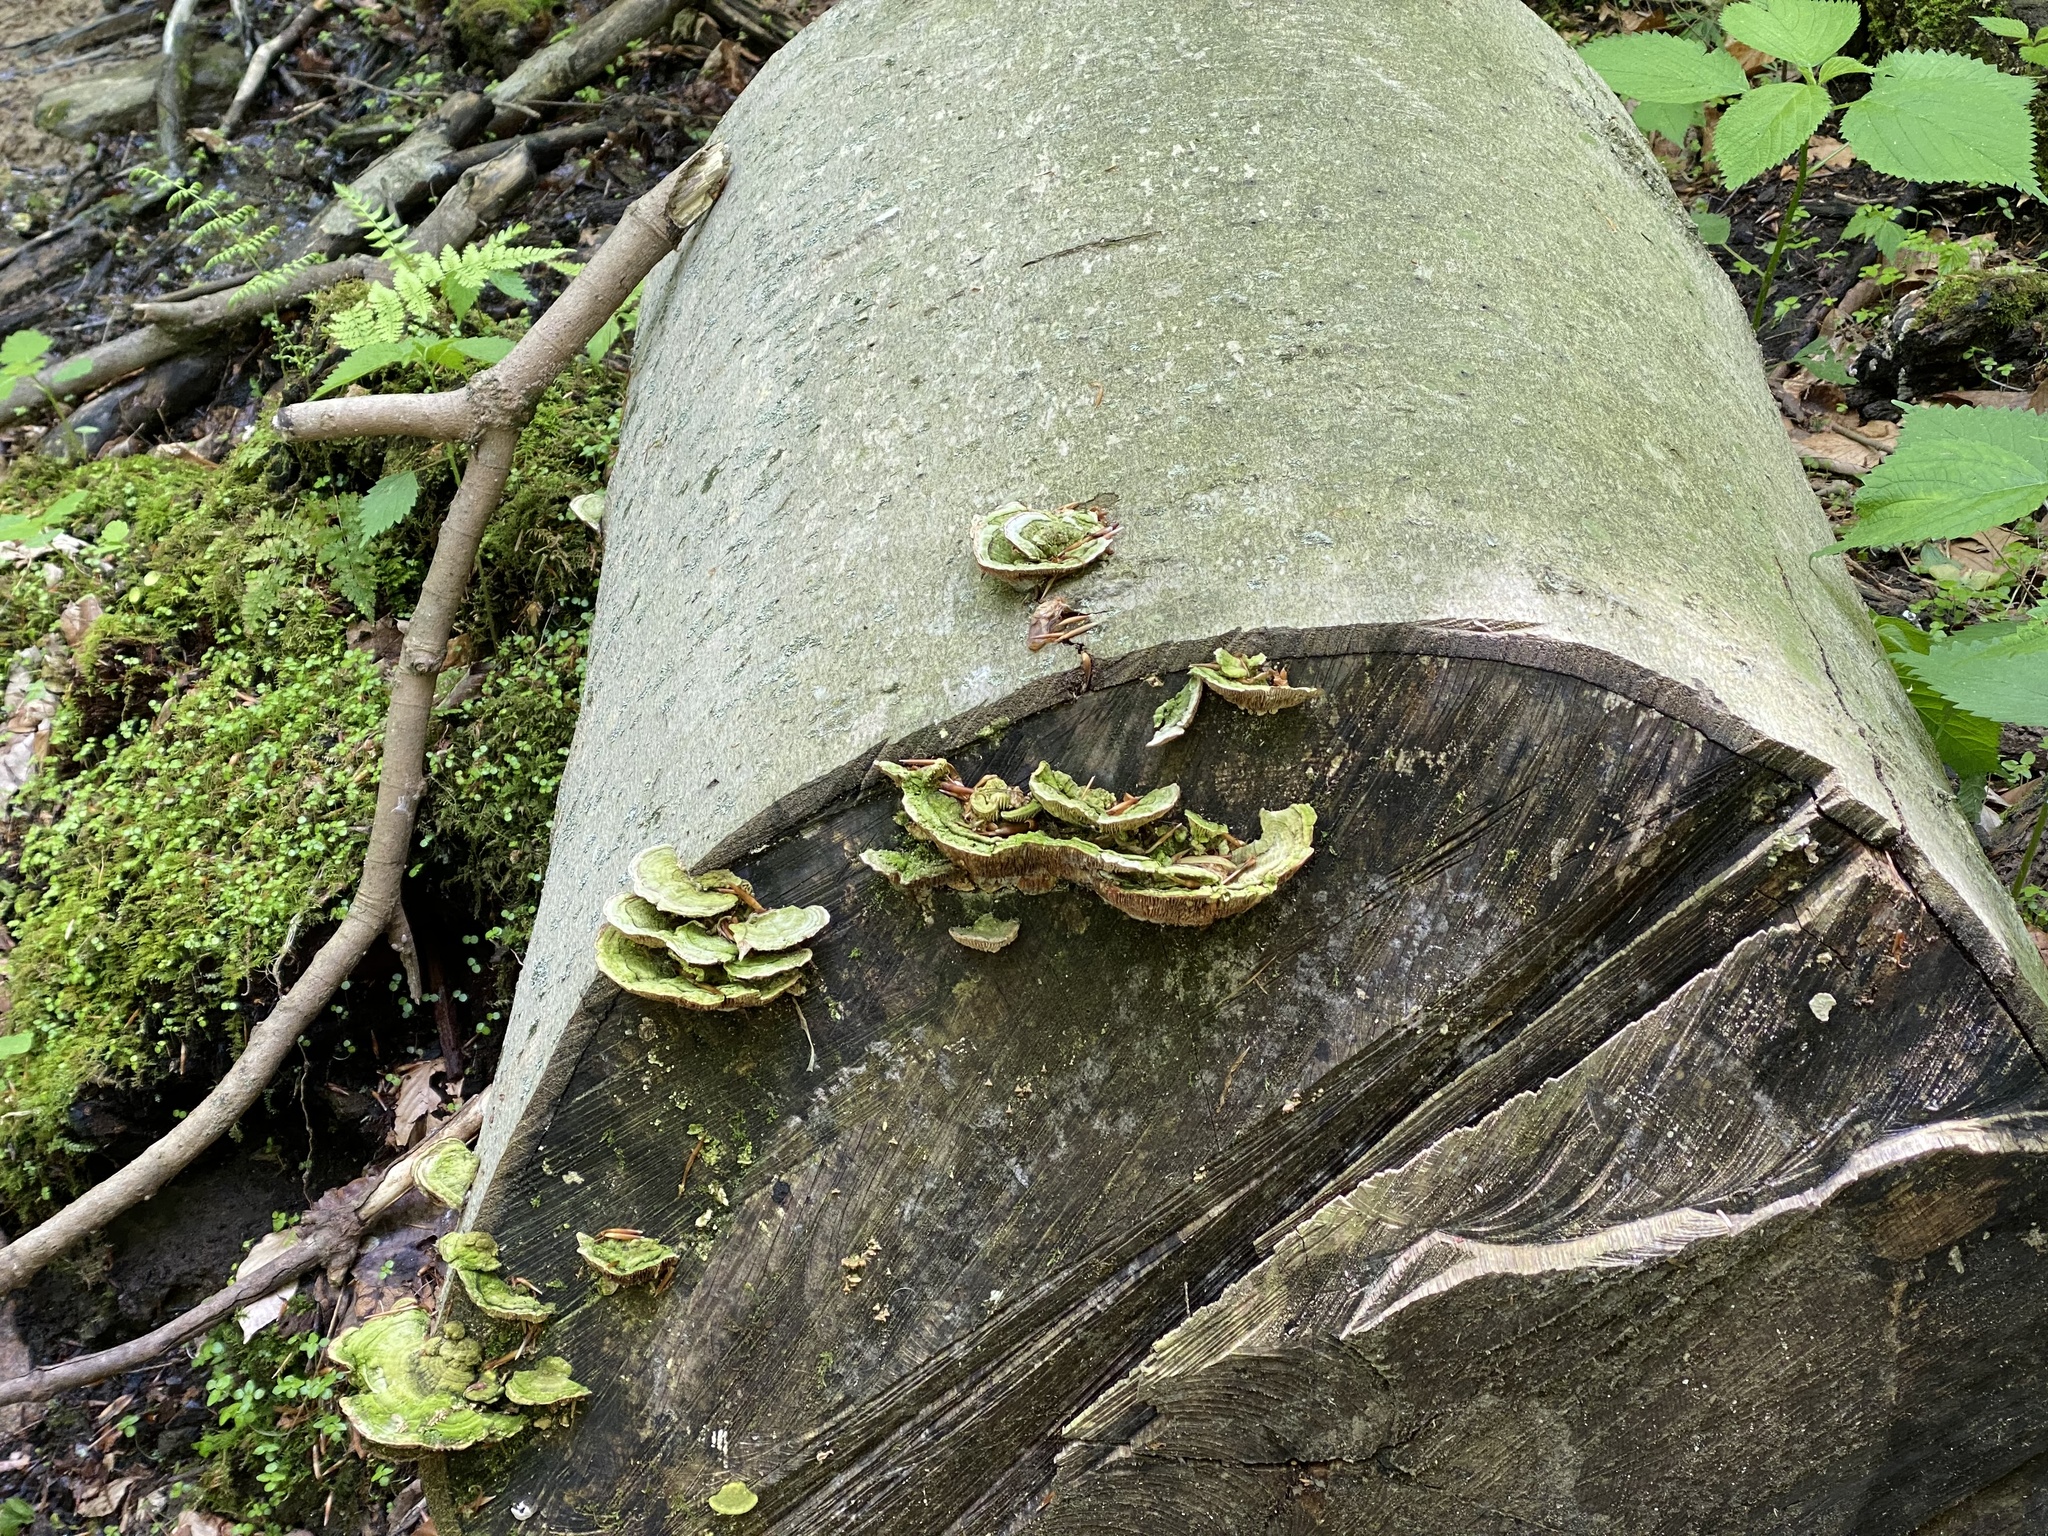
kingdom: Fungi
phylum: Basidiomycota
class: Agaricomycetes
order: Polyporales
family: Polyporaceae
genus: Lenzites
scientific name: Lenzites betulinus
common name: Birch mazegill
